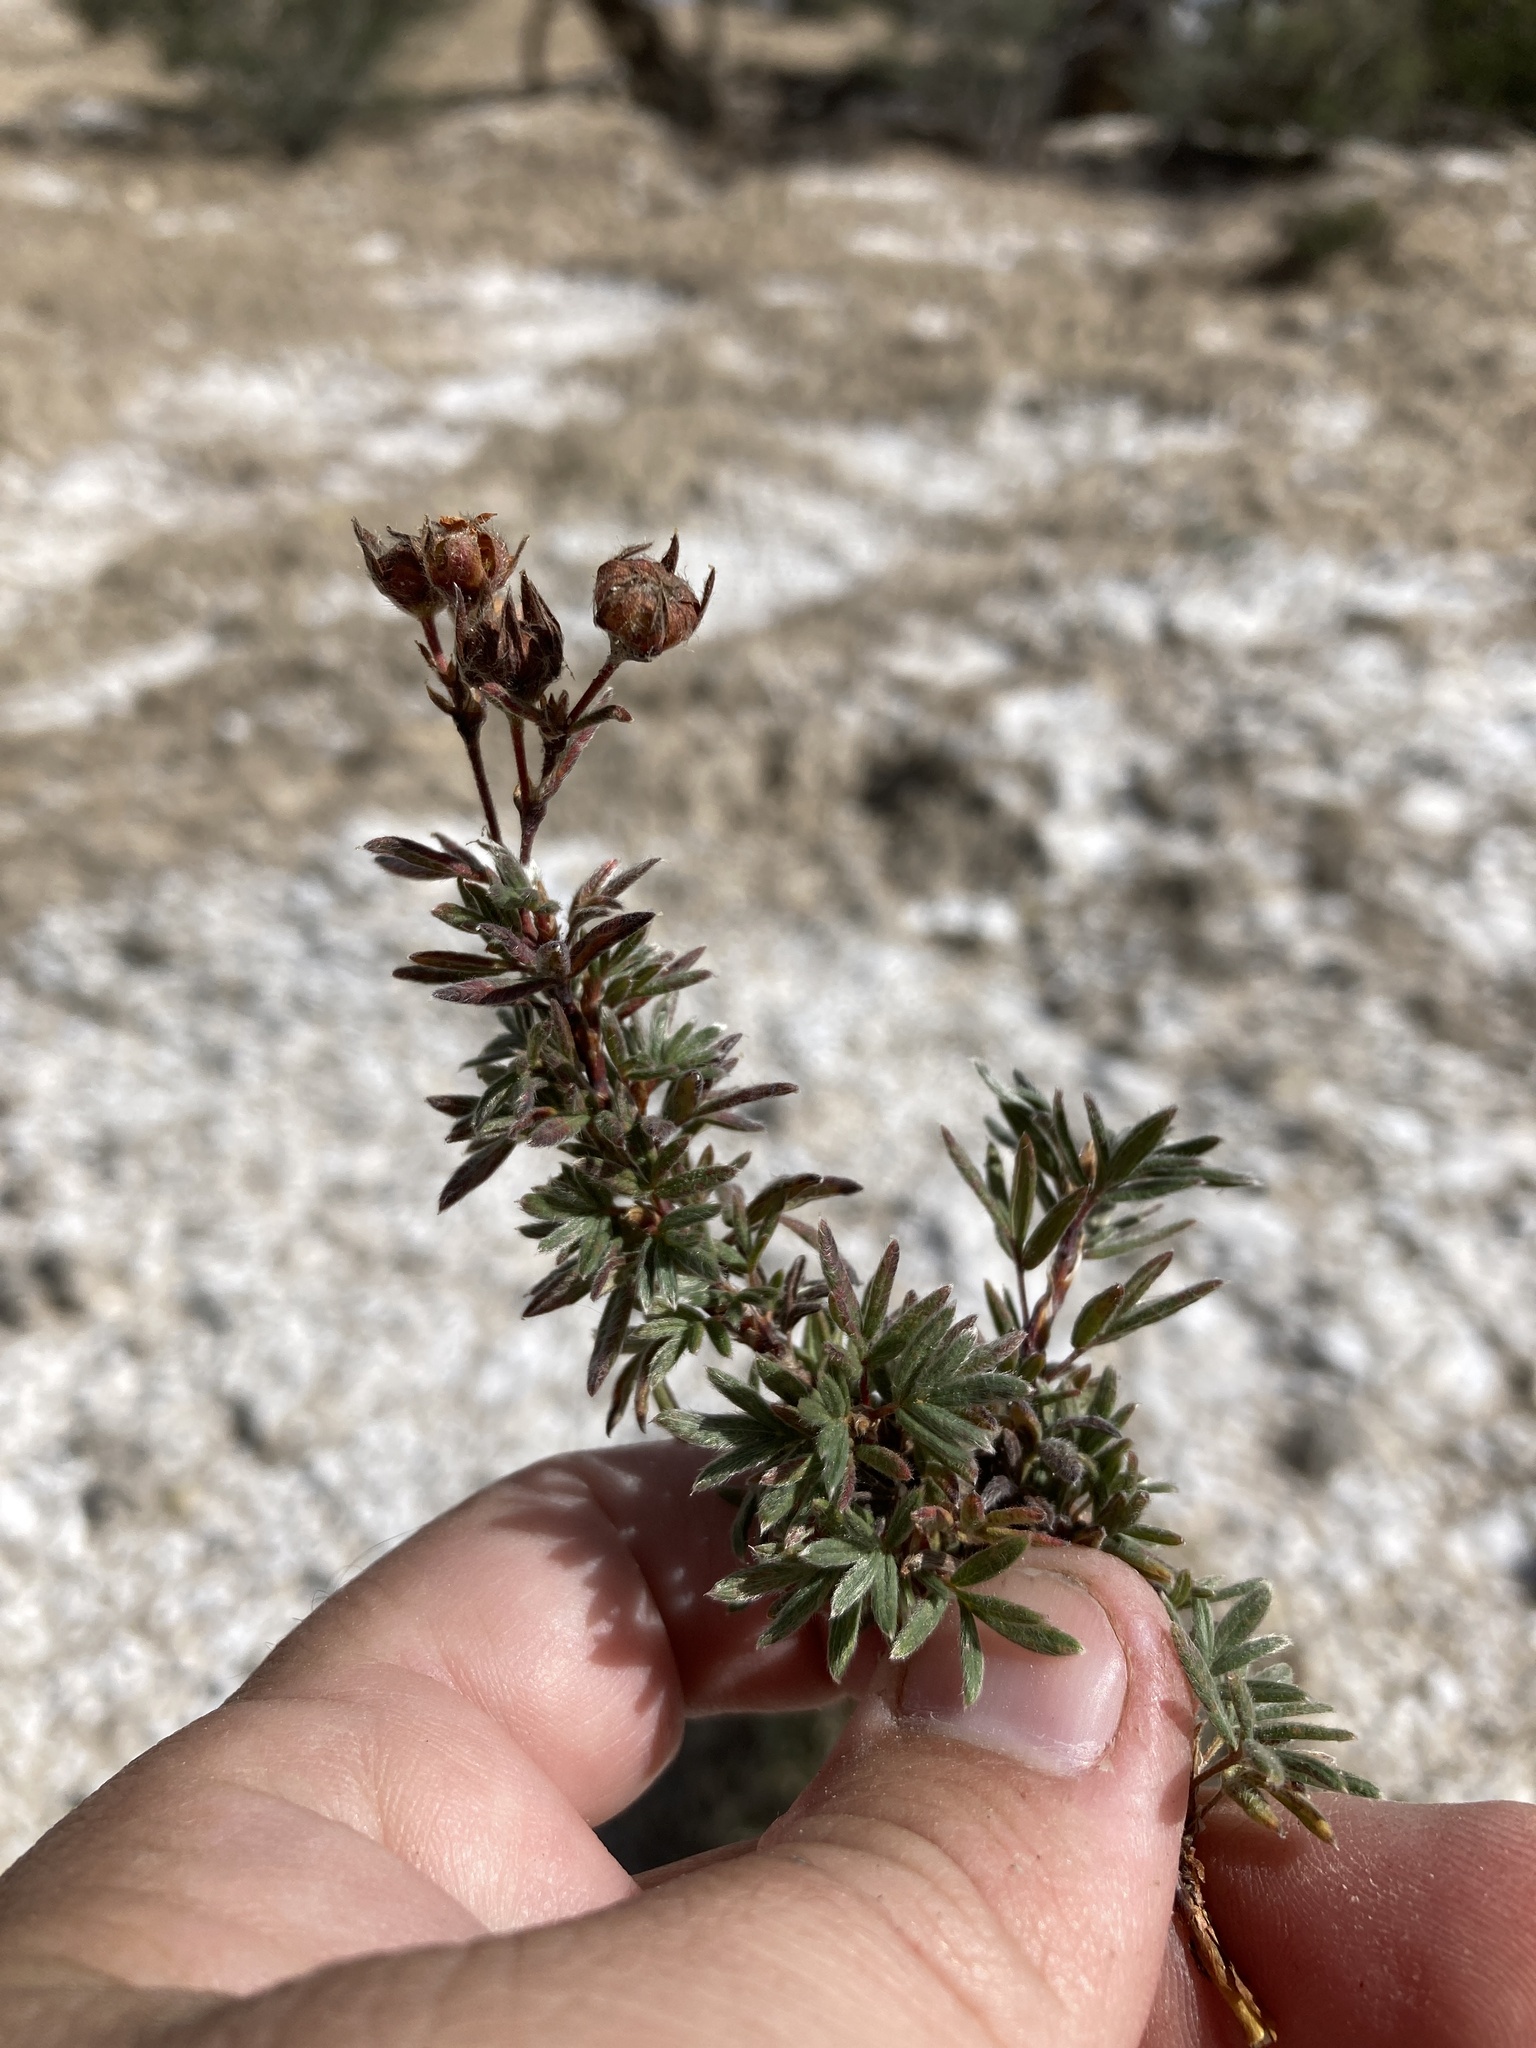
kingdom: Plantae
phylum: Tracheophyta
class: Magnoliopsida
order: Rosales
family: Rosaceae
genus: Dasiphora
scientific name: Dasiphora fruticosa
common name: Shrubby cinquefoil
